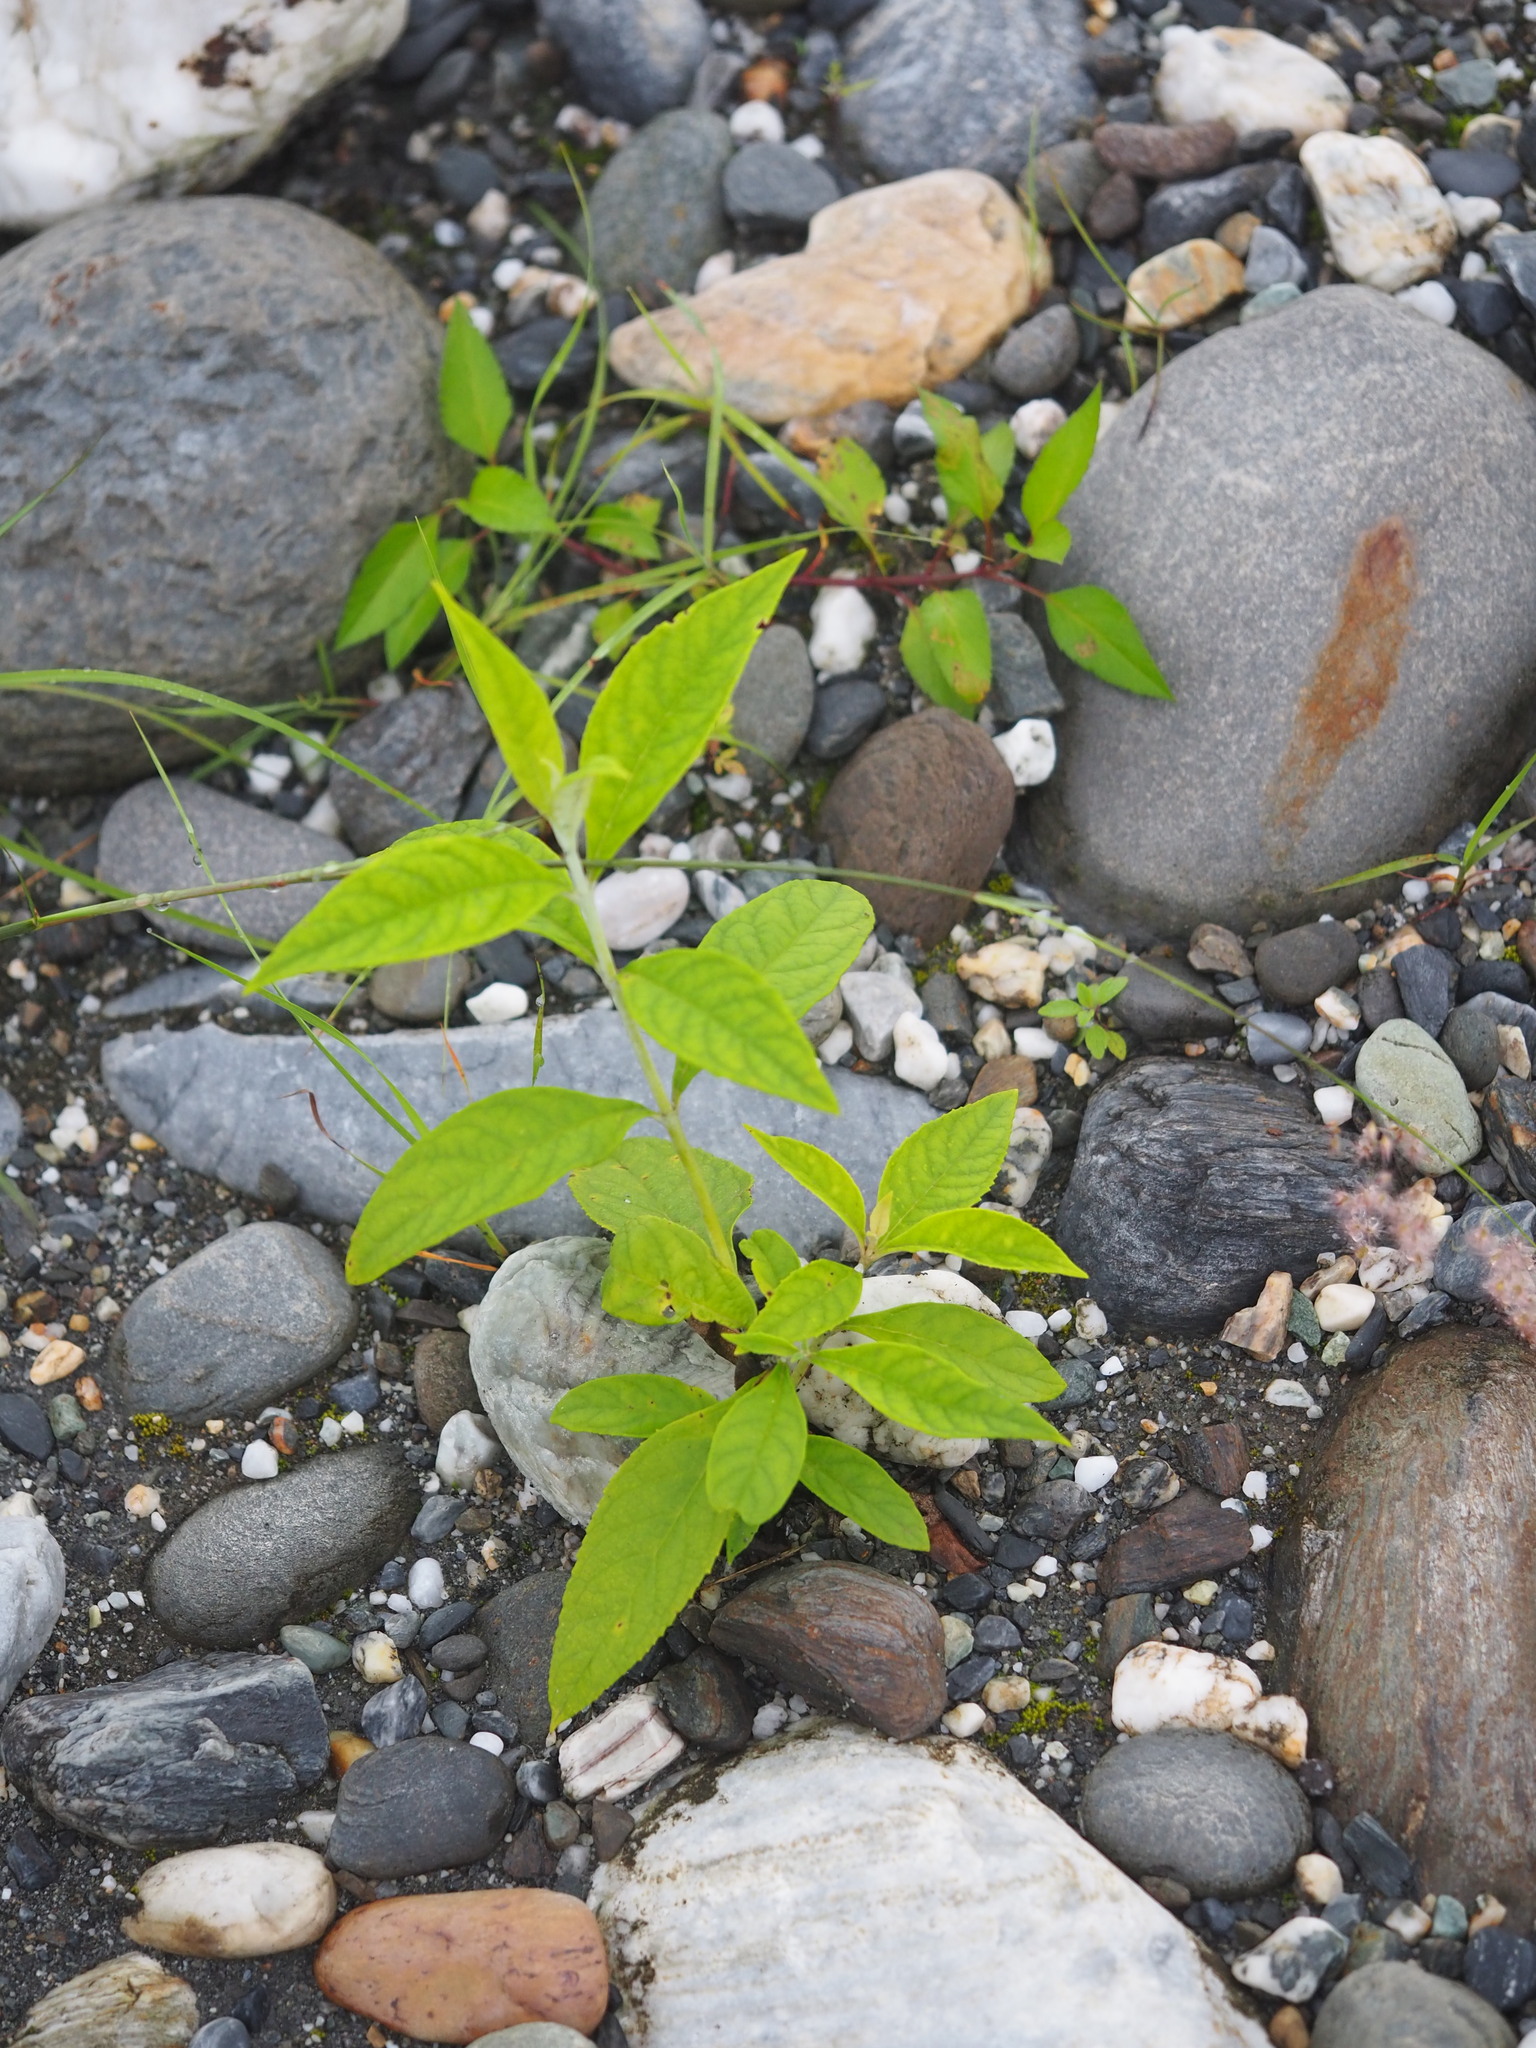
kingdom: Plantae
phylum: Tracheophyta
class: Magnoliopsida
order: Lamiales
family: Scrophulariaceae
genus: Buddleja
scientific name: Buddleja asiatica
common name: Dog tail
